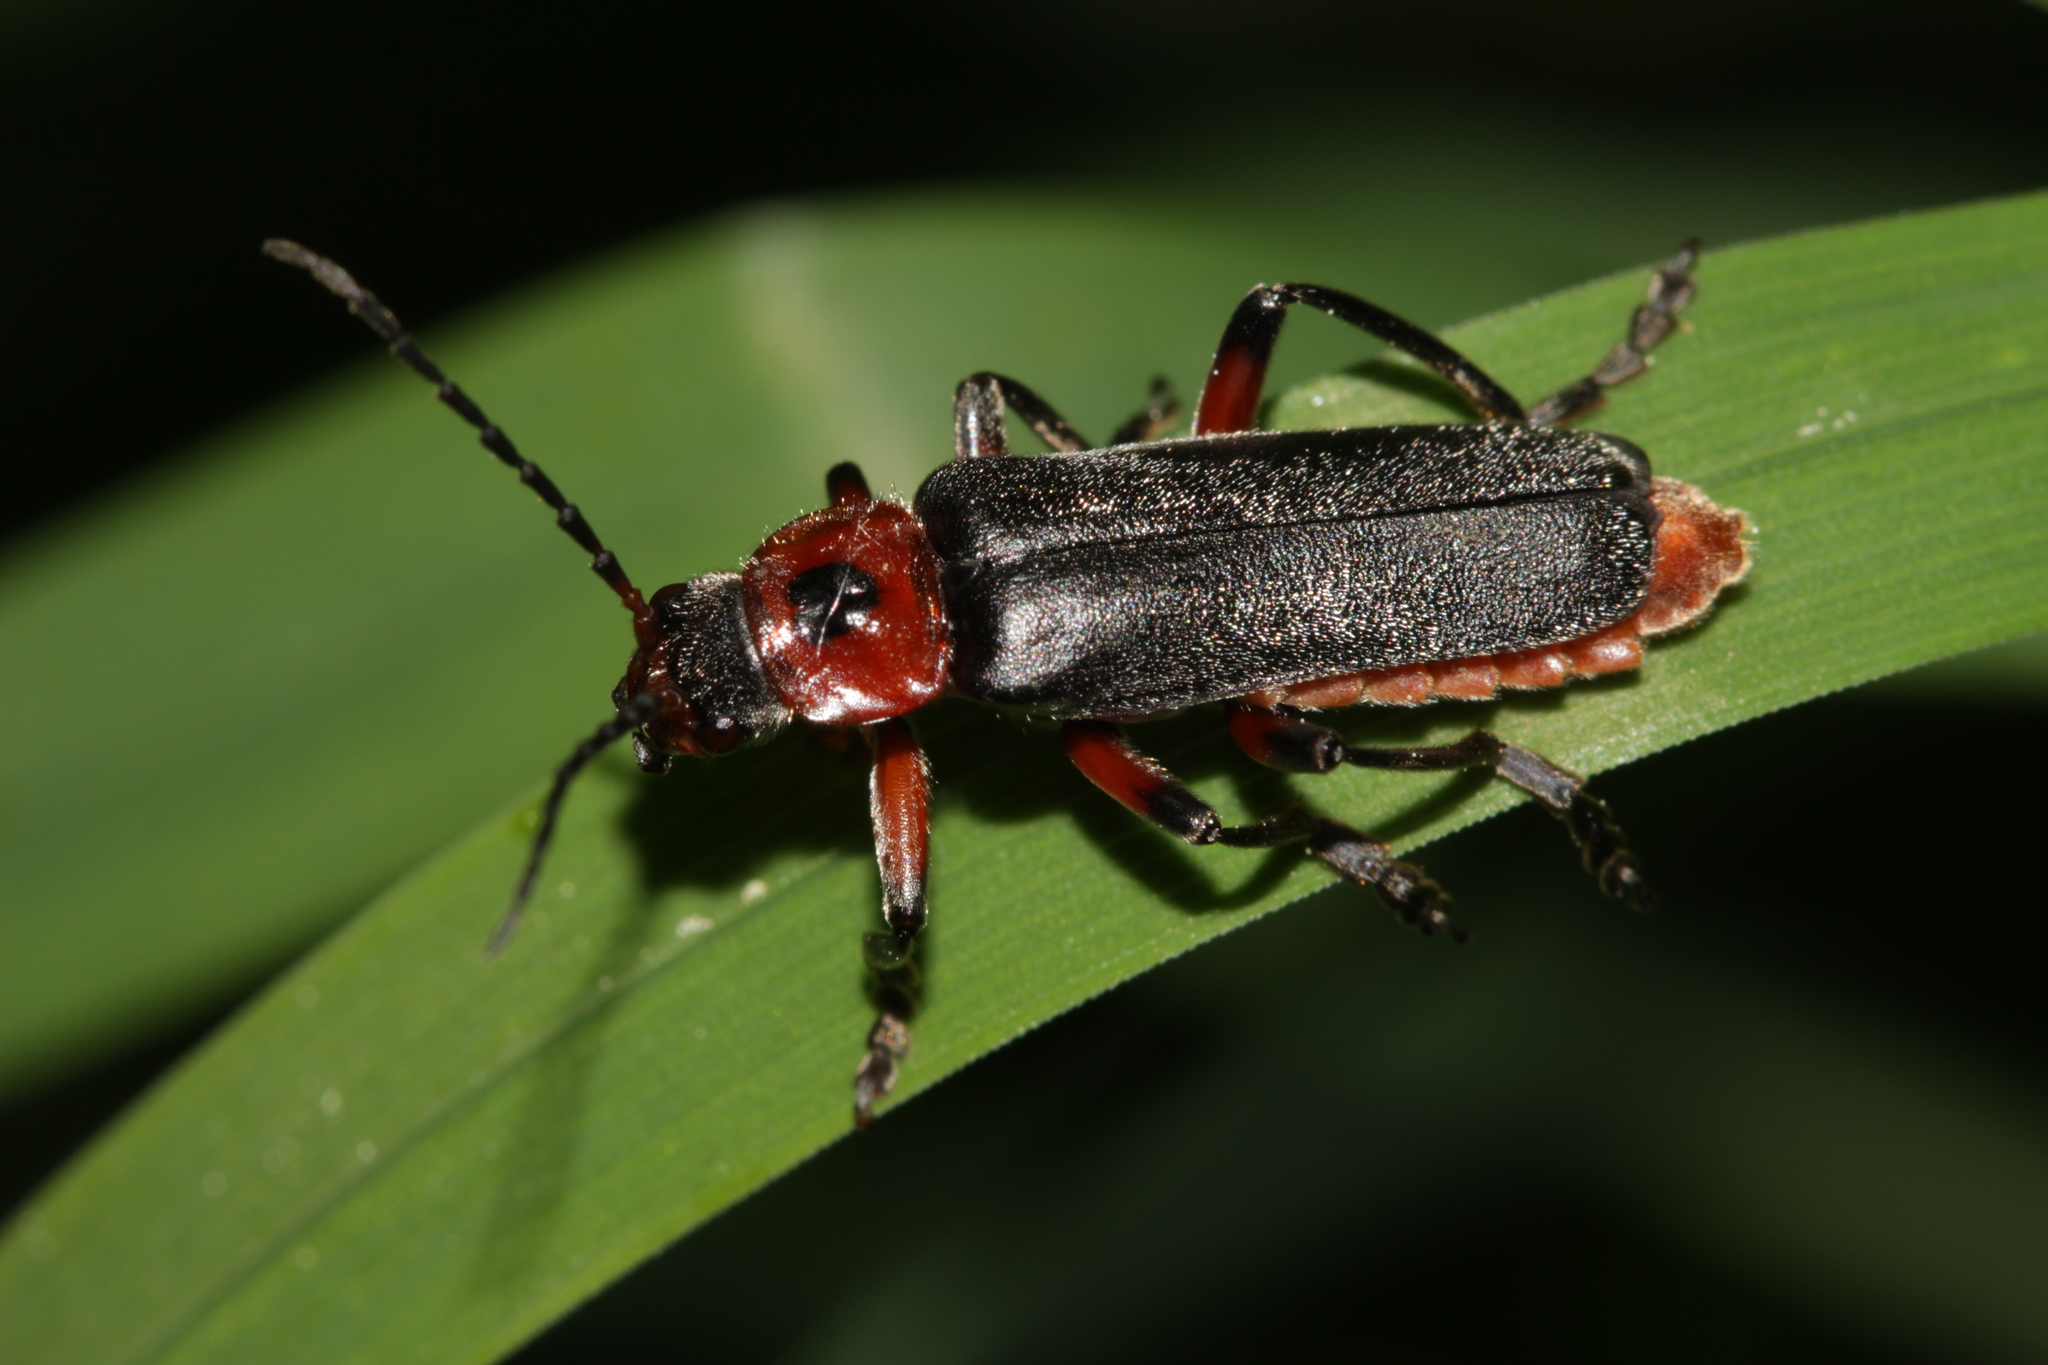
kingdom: Animalia
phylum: Arthropoda
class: Insecta
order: Coleoptera
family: Cantharidae
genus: Cantharis
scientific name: Cantharis rustica
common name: Soldier beetle
